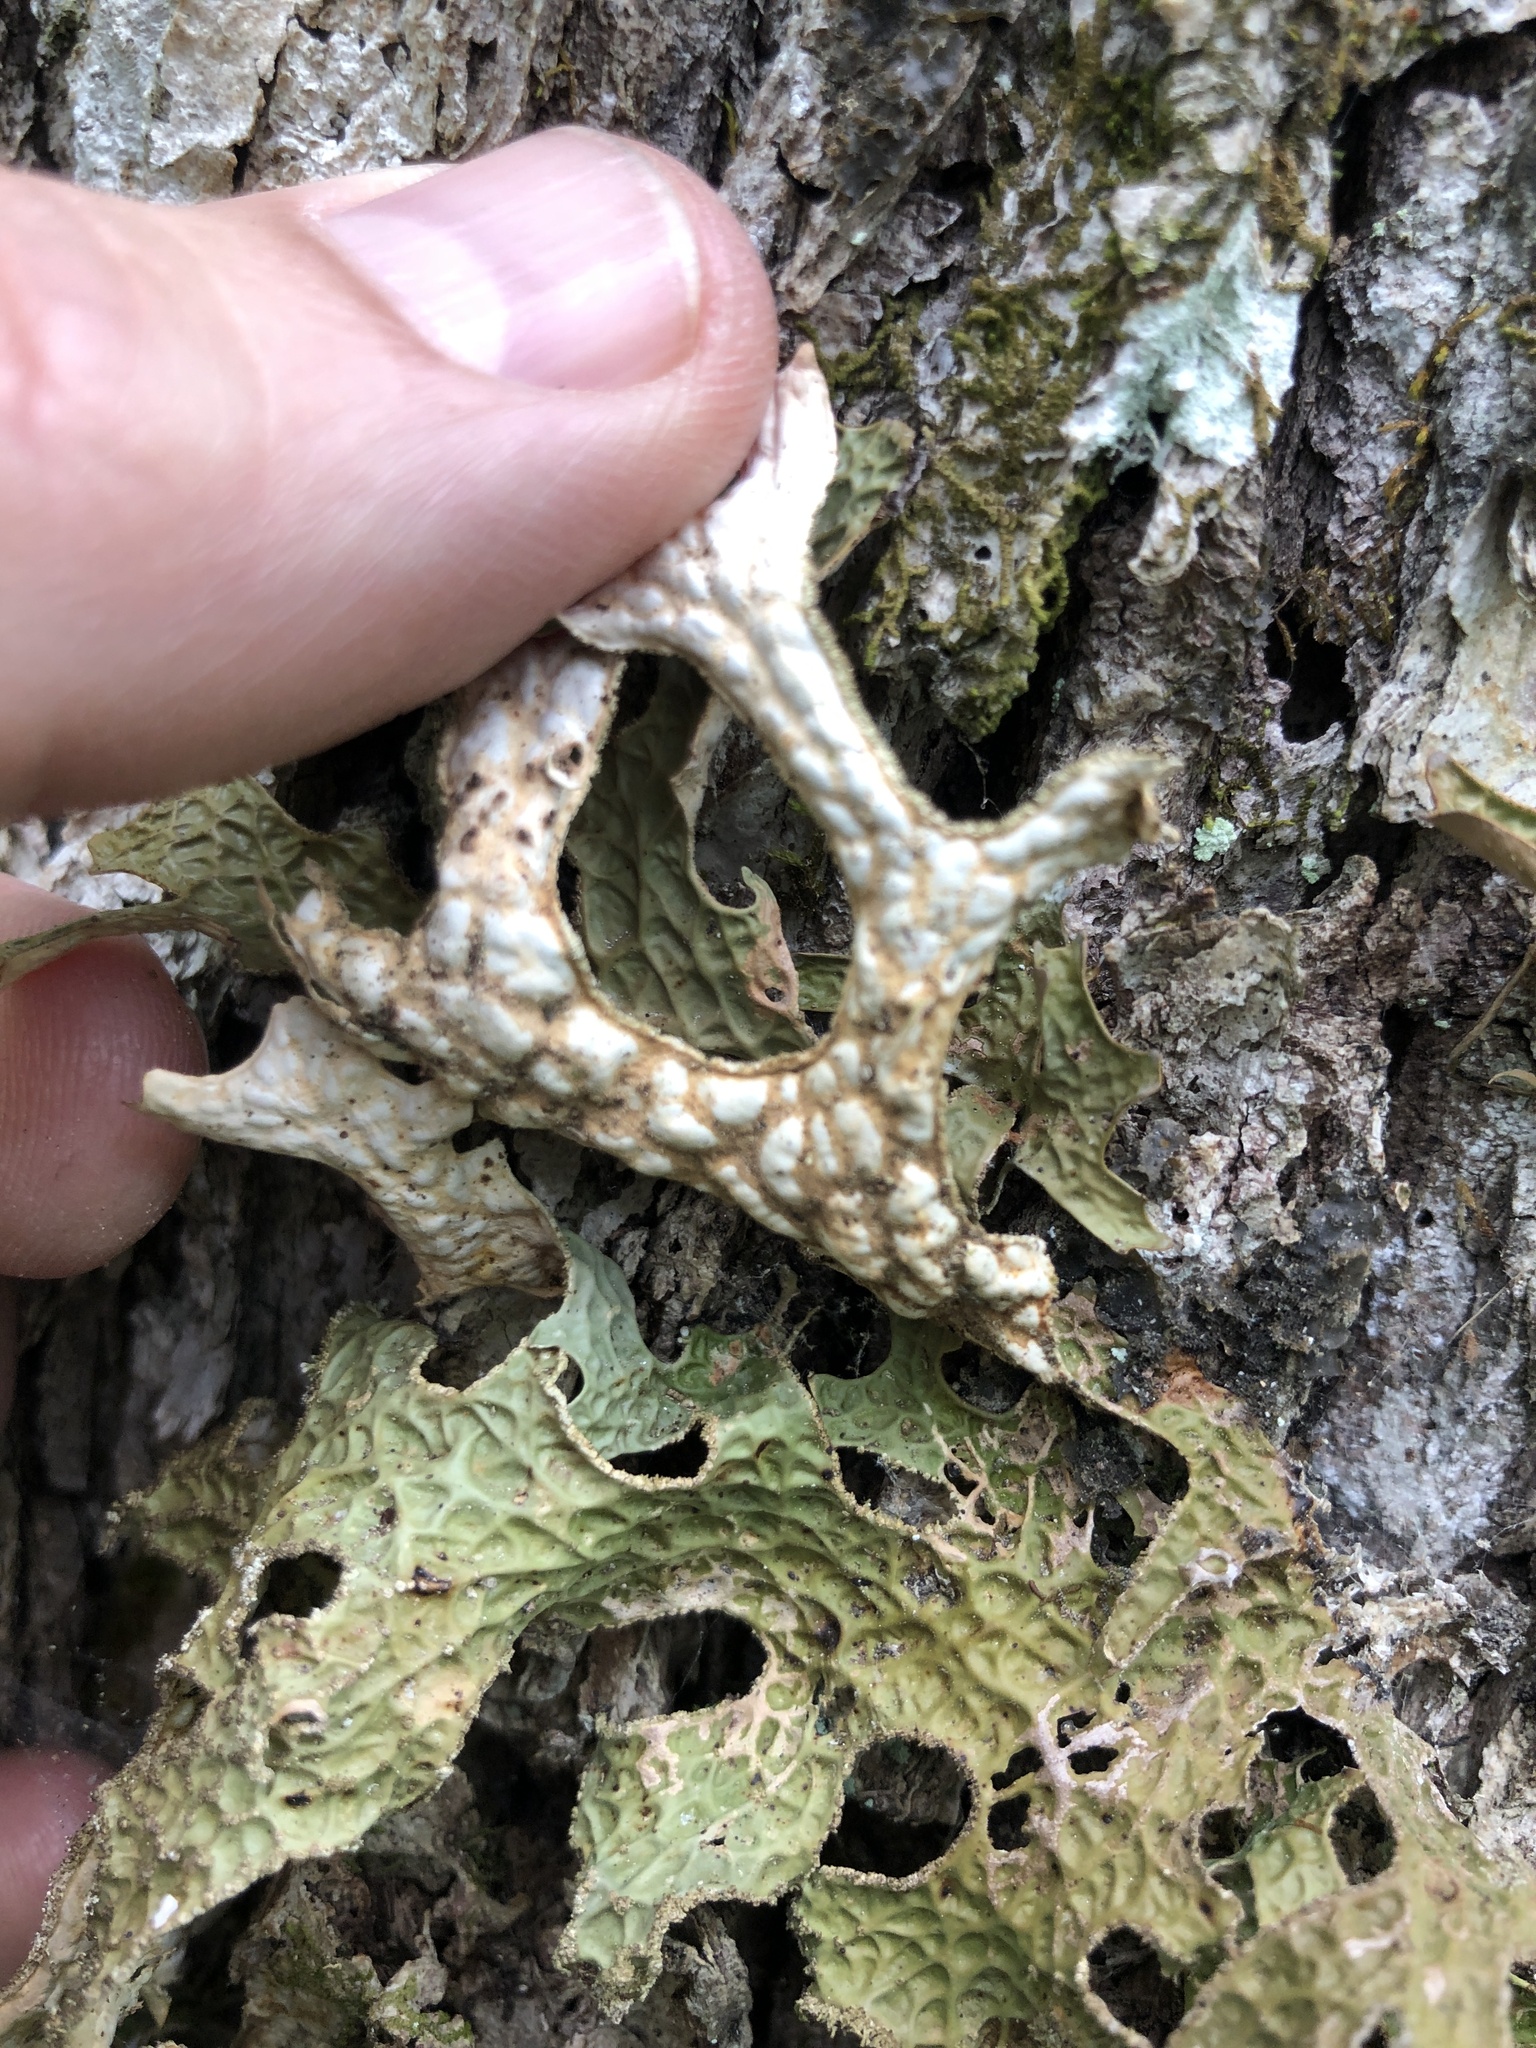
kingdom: Fungi
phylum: Ascomycota
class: Lecanoromycetes
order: Peltigerales
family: Lobariaceae
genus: Lobaria
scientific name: Lobaria pulmonaria
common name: Lungwort
